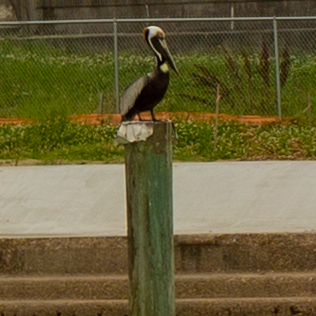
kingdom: Animalia
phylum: Chordata
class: Aves
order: Pelecaniformes
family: Pelecanidae
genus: Pelecanus
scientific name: Pelecanus occidentalis
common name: Brown pelican
